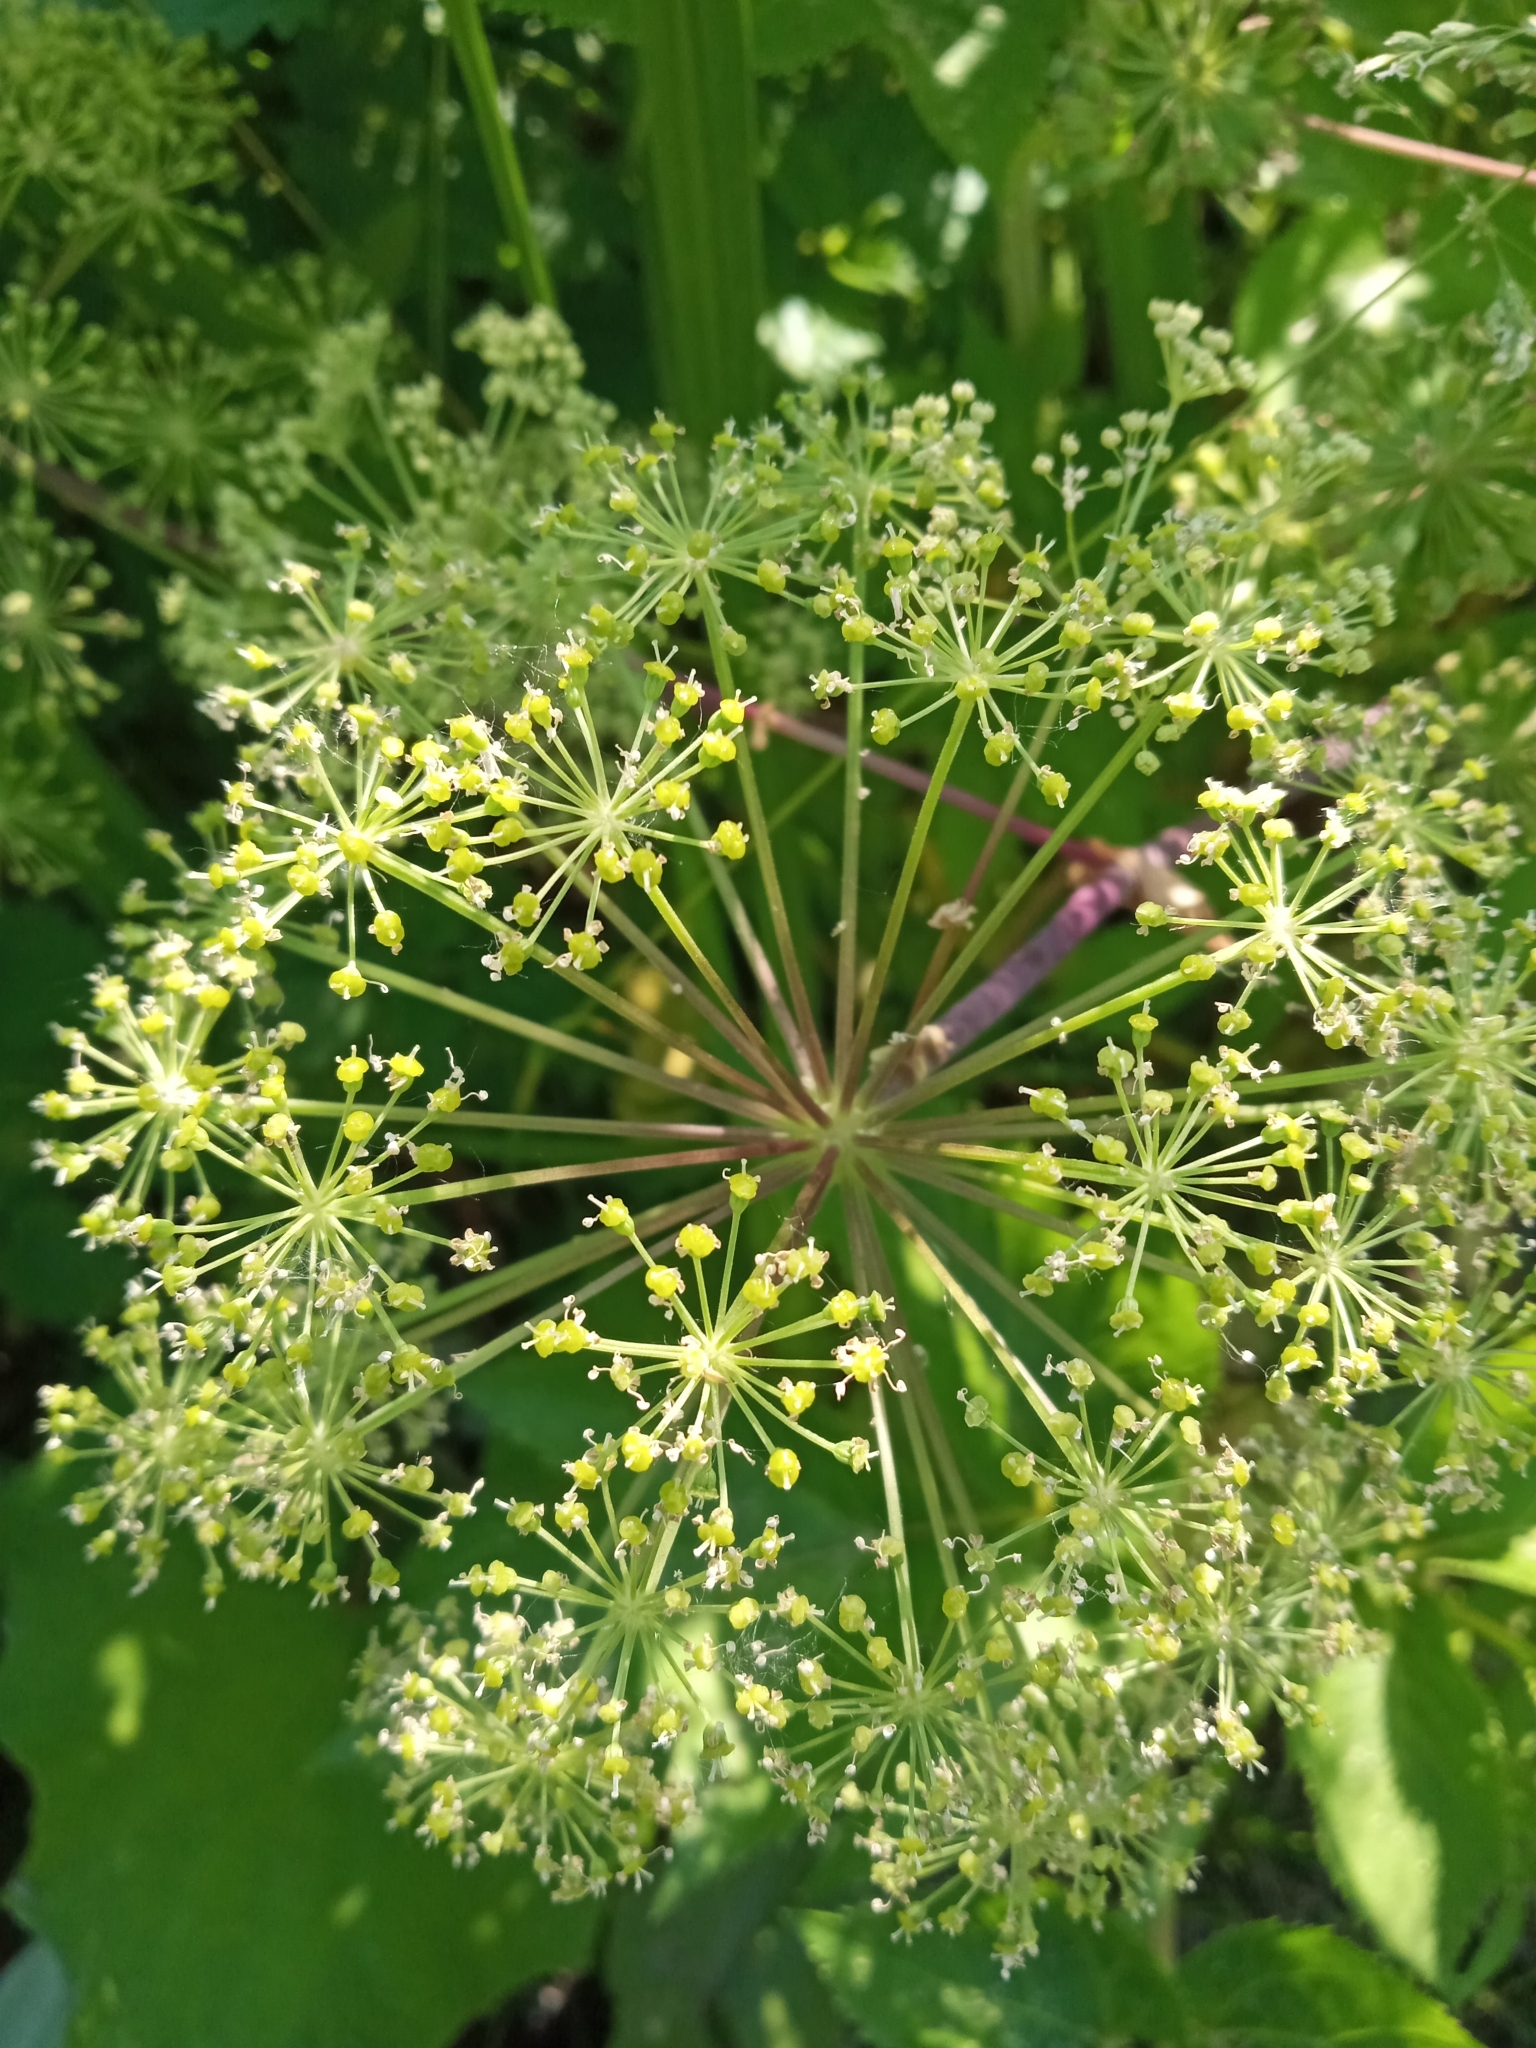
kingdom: Plantae
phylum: Tracheophyta
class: Magnoliopsida
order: Apiales
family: Apiaceae
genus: Angelica
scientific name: Angelica archangelica
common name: Garden angelica
